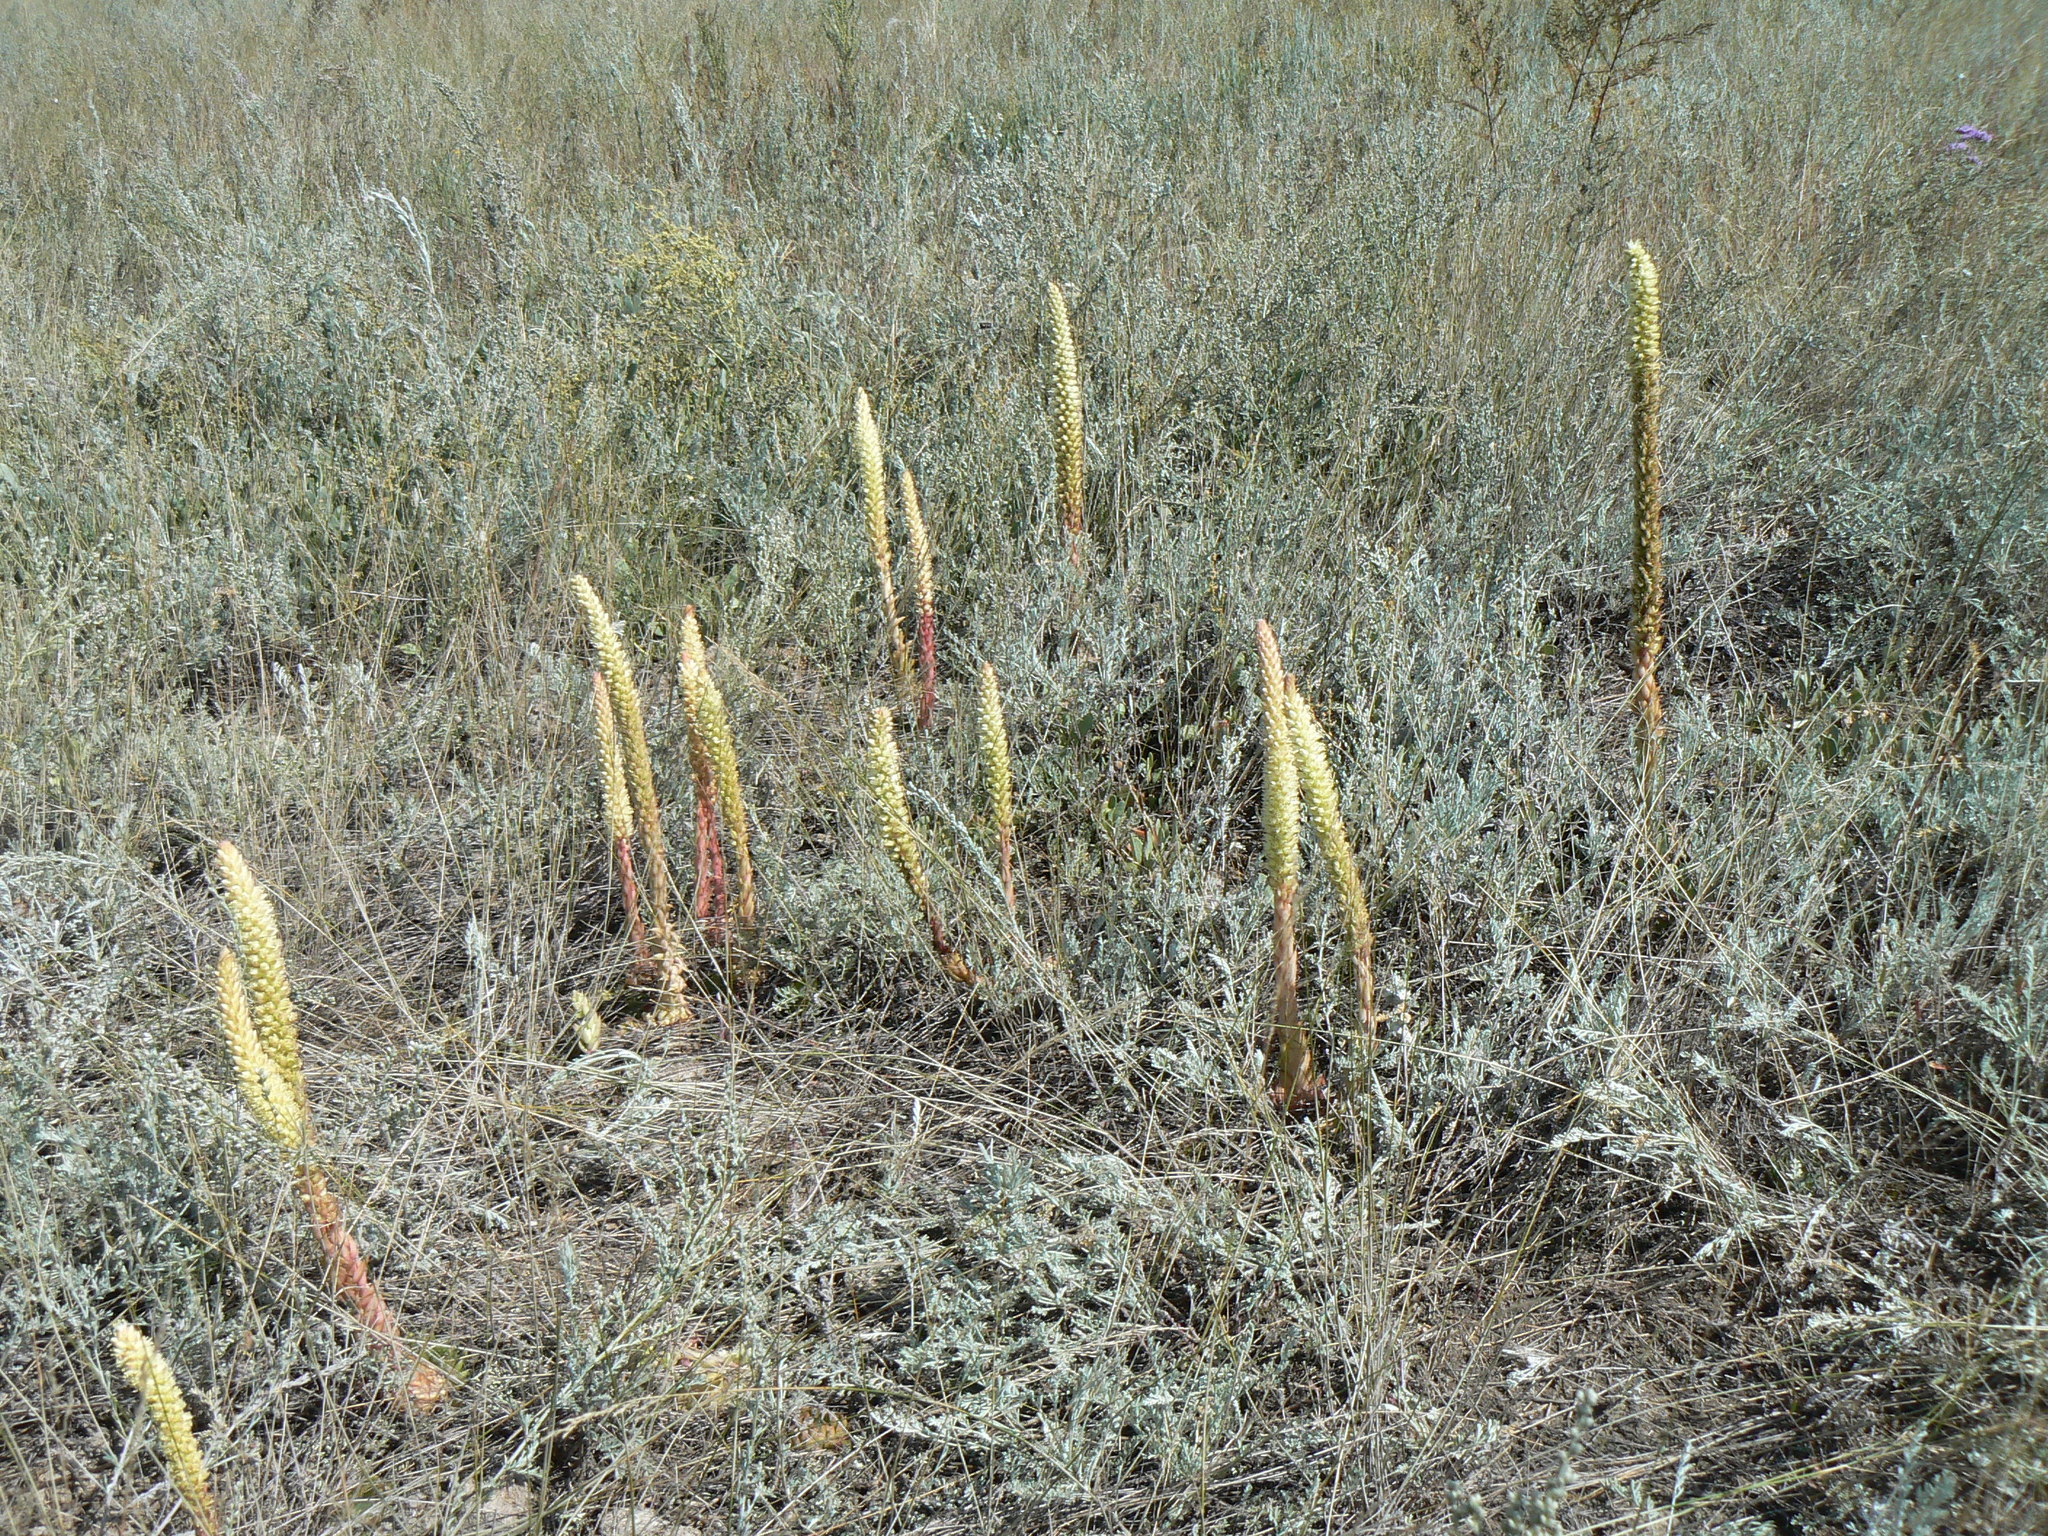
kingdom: Plantae
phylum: Tracheophyta
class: Magnoliopsida
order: Saxifragales
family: Crassulaceae
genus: Orostachys
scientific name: Orostachys spinosa
